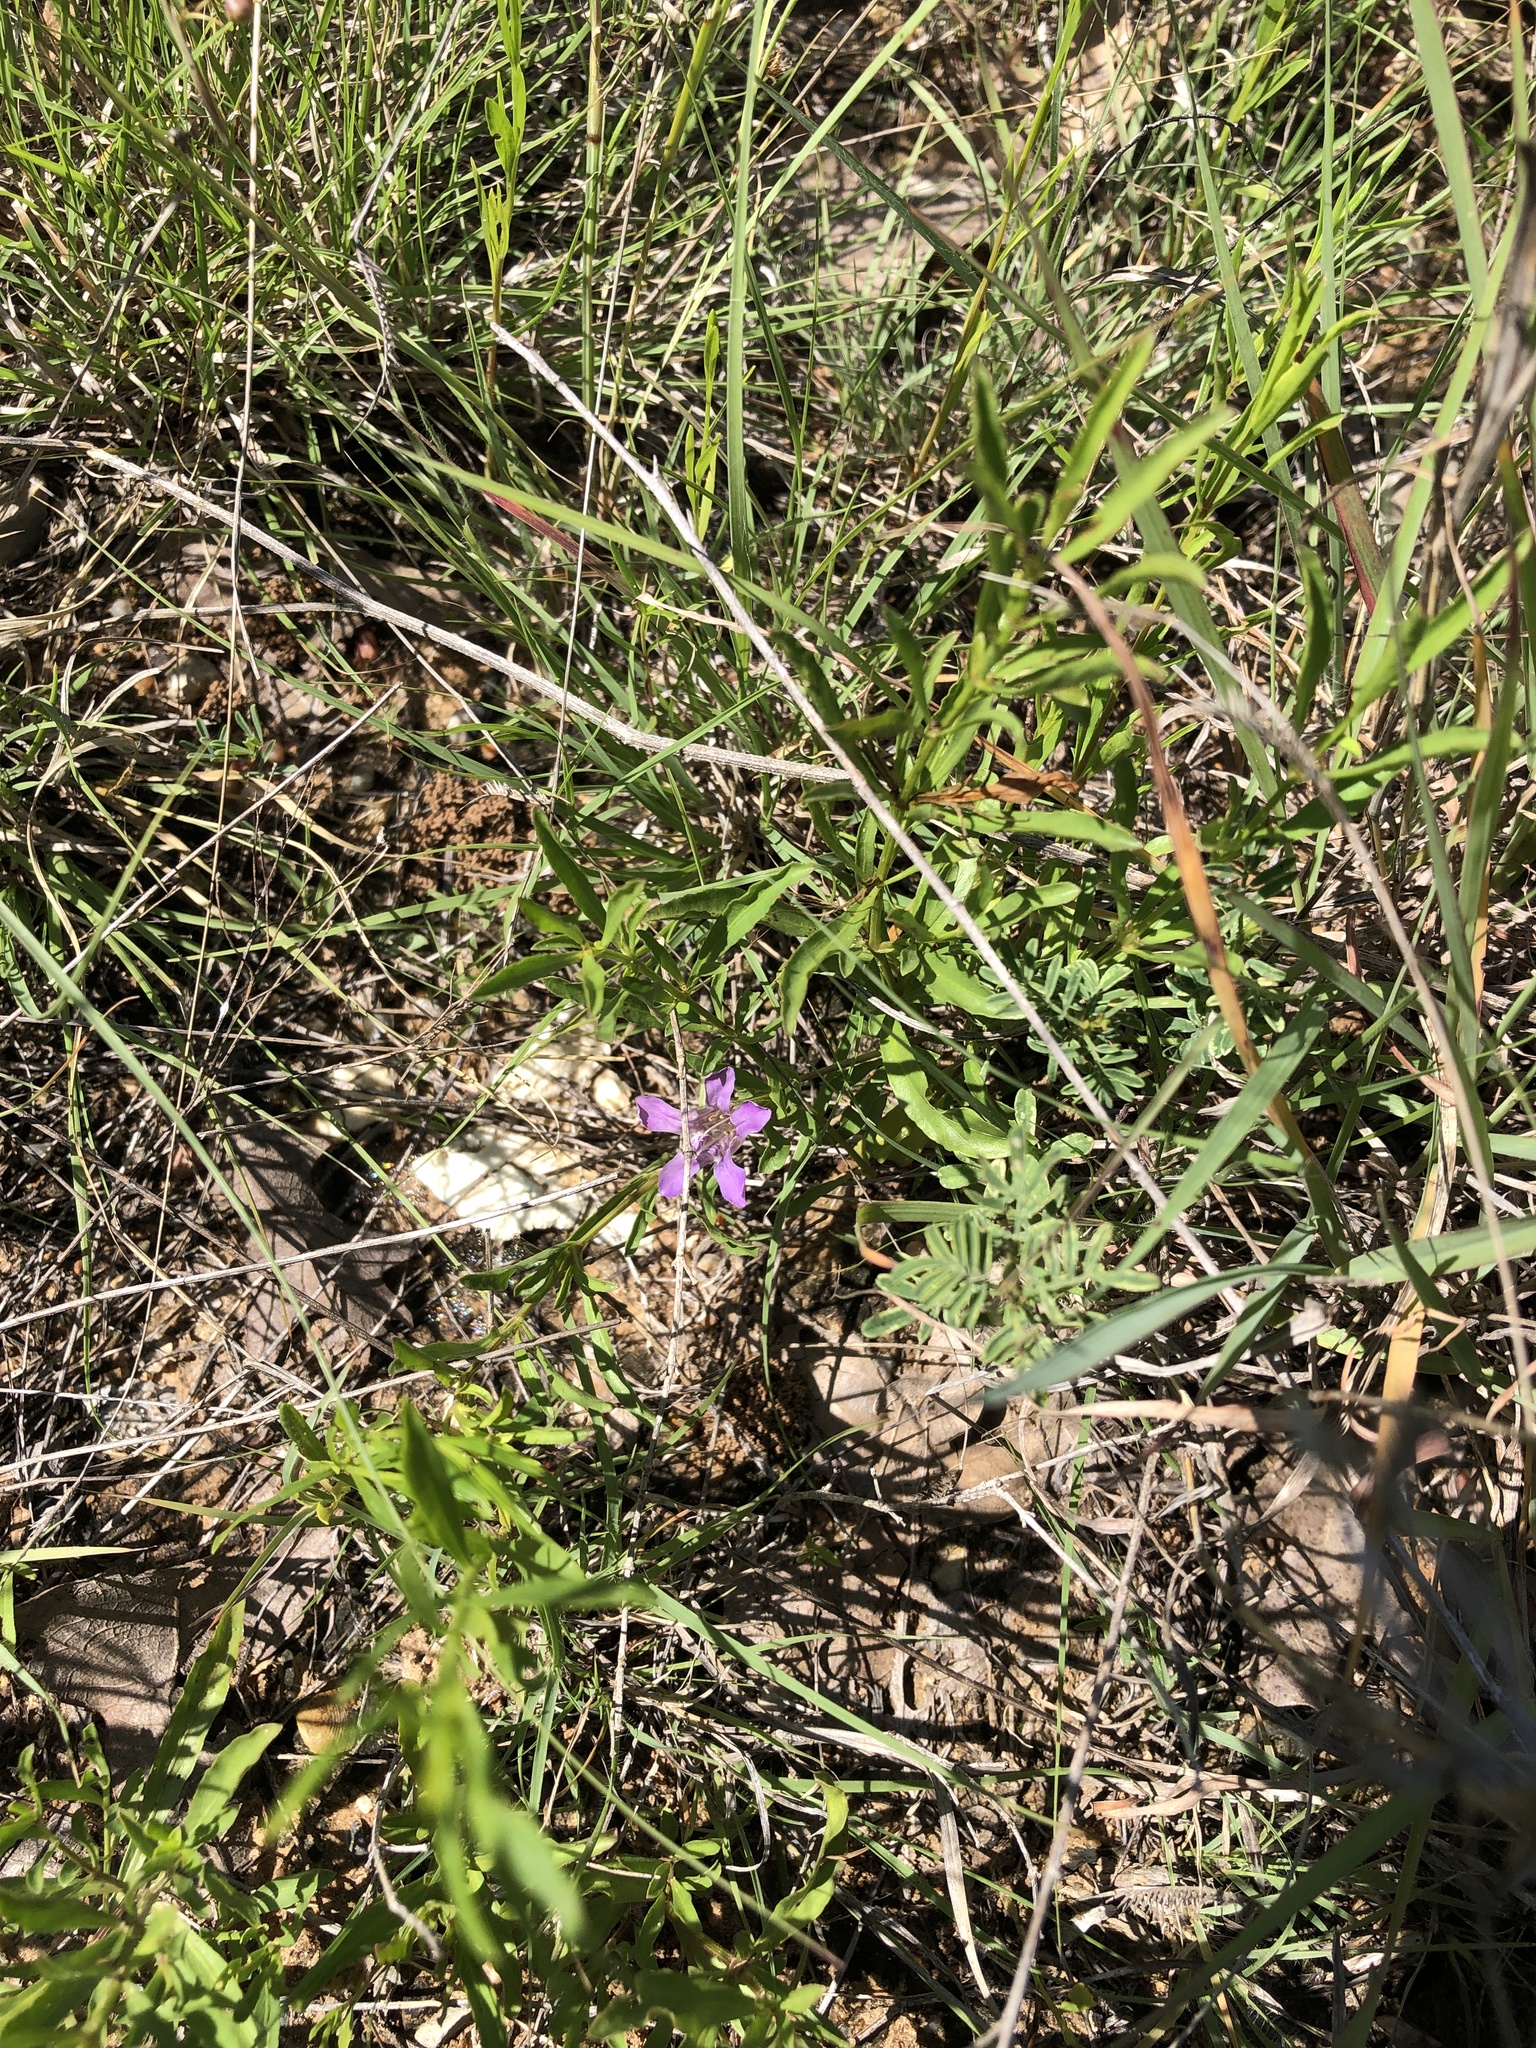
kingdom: Plantae
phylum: Tracheophyta
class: Magnoliopsida
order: Lamiales
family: Acanthaceae
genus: Dyschoriste
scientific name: Dyschoriste linearis
